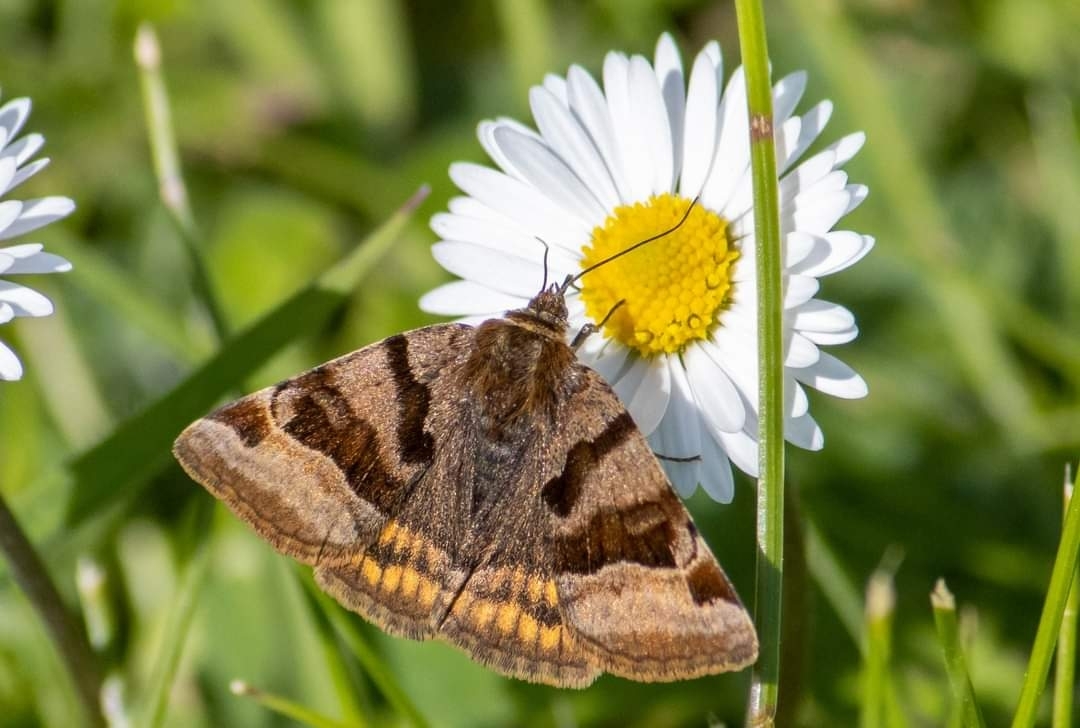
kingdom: Animalia
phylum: Arthropoda
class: Insecta
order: Lepidoptera
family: Erebidae
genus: Euclidia
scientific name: Euclidia glyphica
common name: Burnet companion
